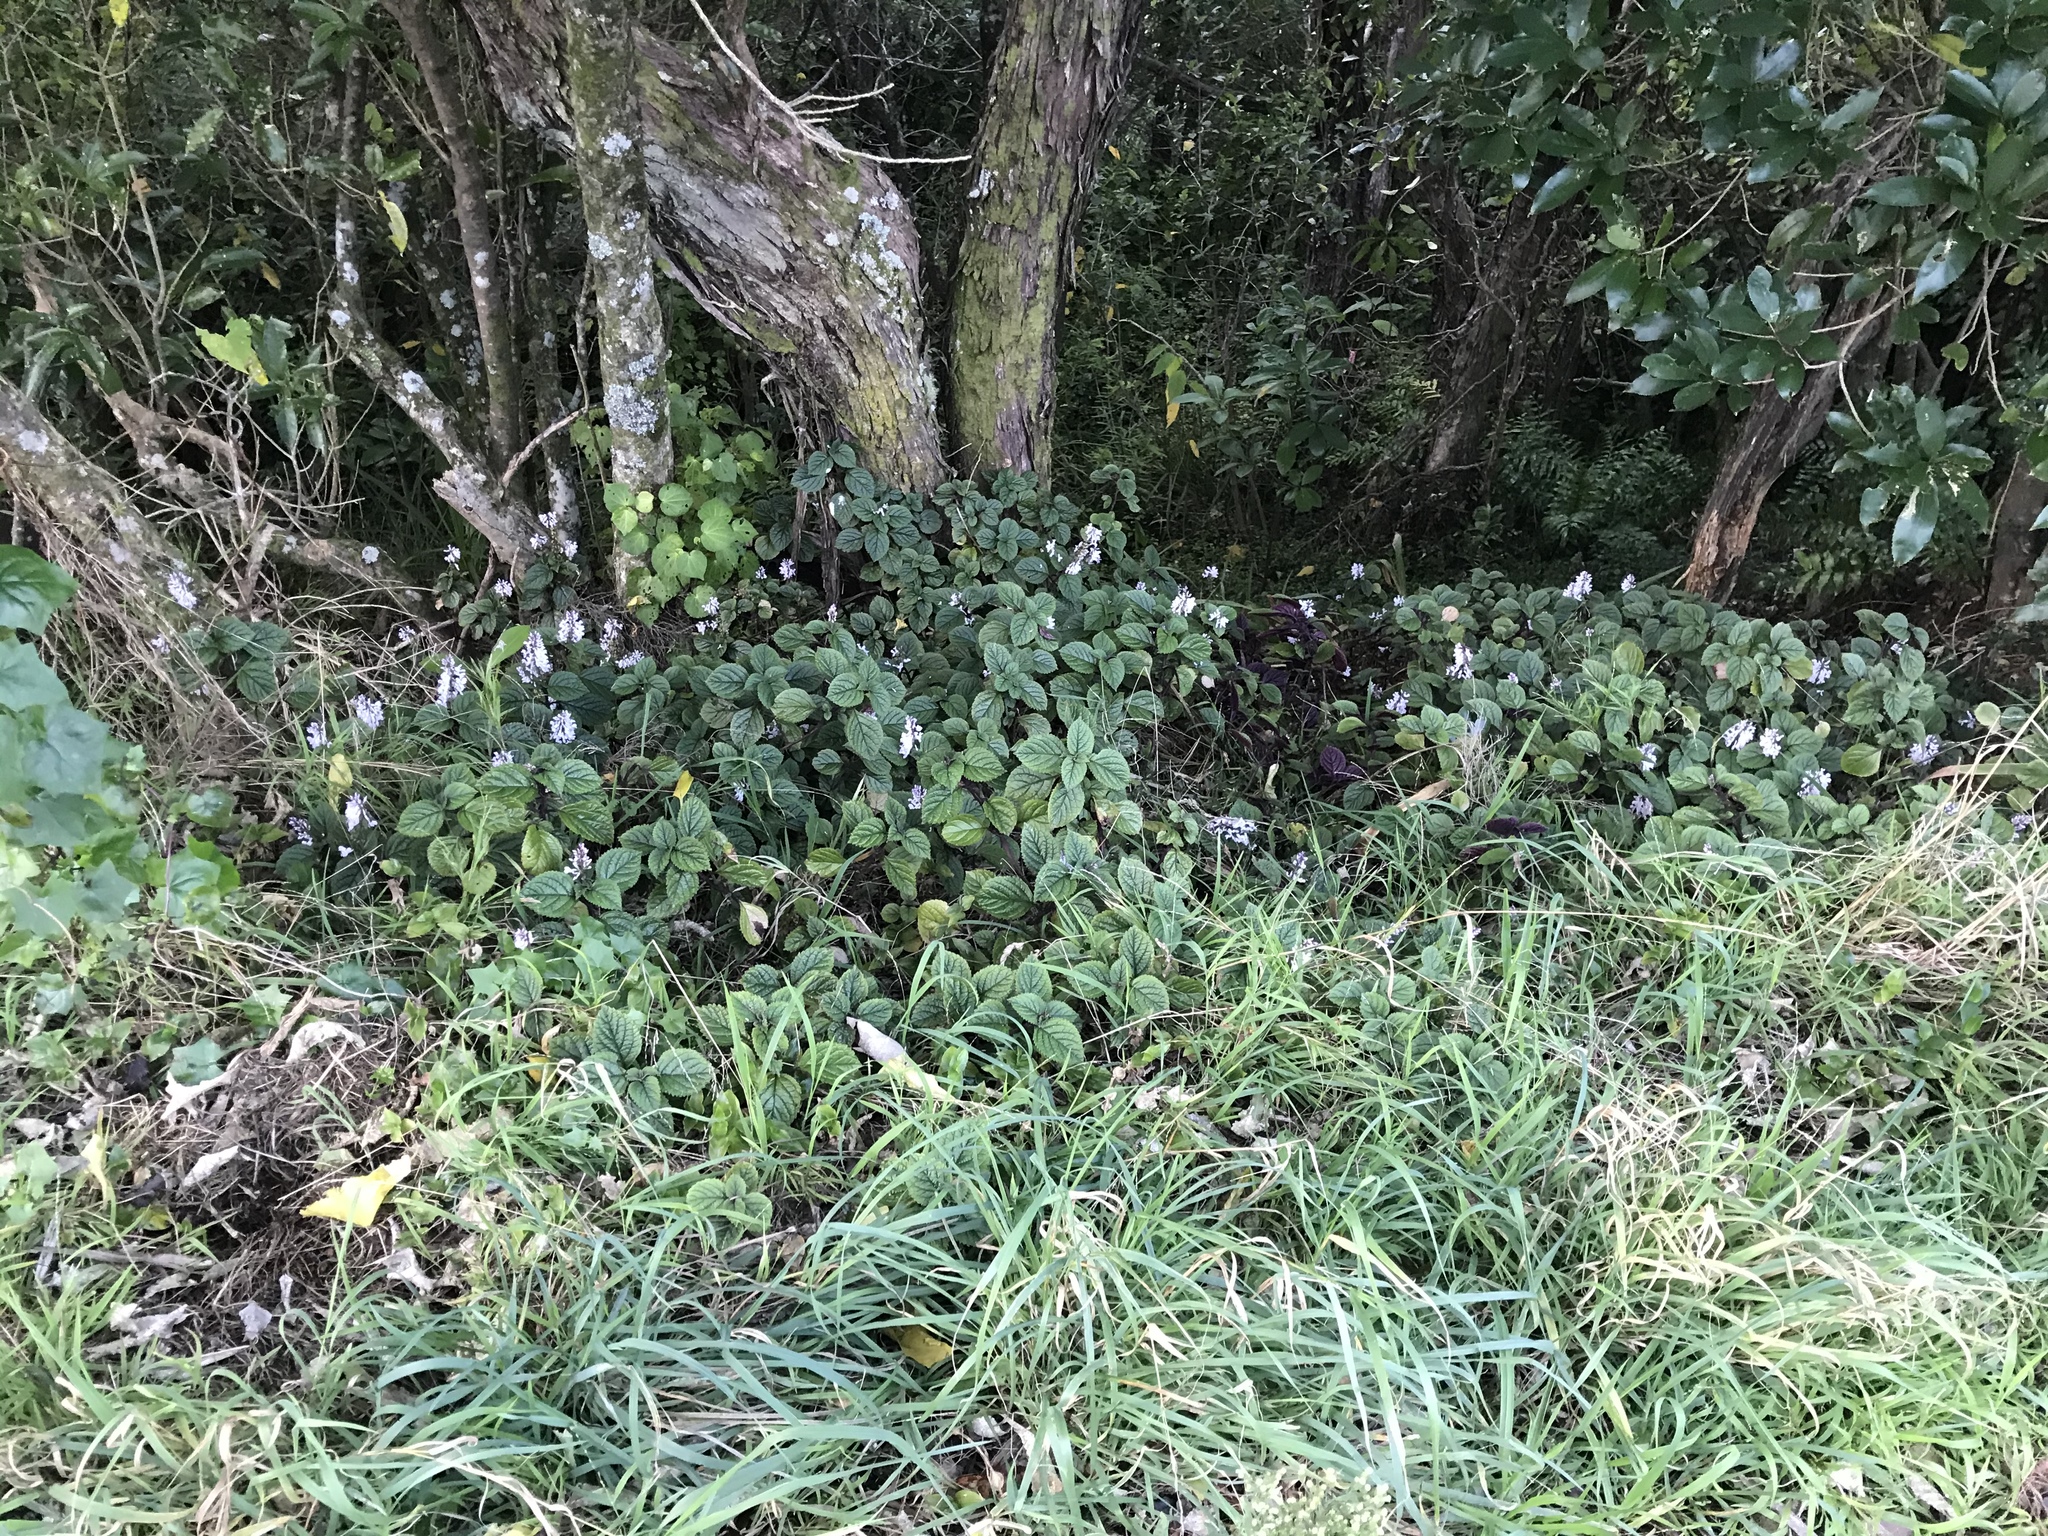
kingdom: Plantae
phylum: Tracheophyta
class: Magnoliopsida
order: Lamiales
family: Lamiaceae
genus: Plectranthus
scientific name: Plectranthus ciliatus
